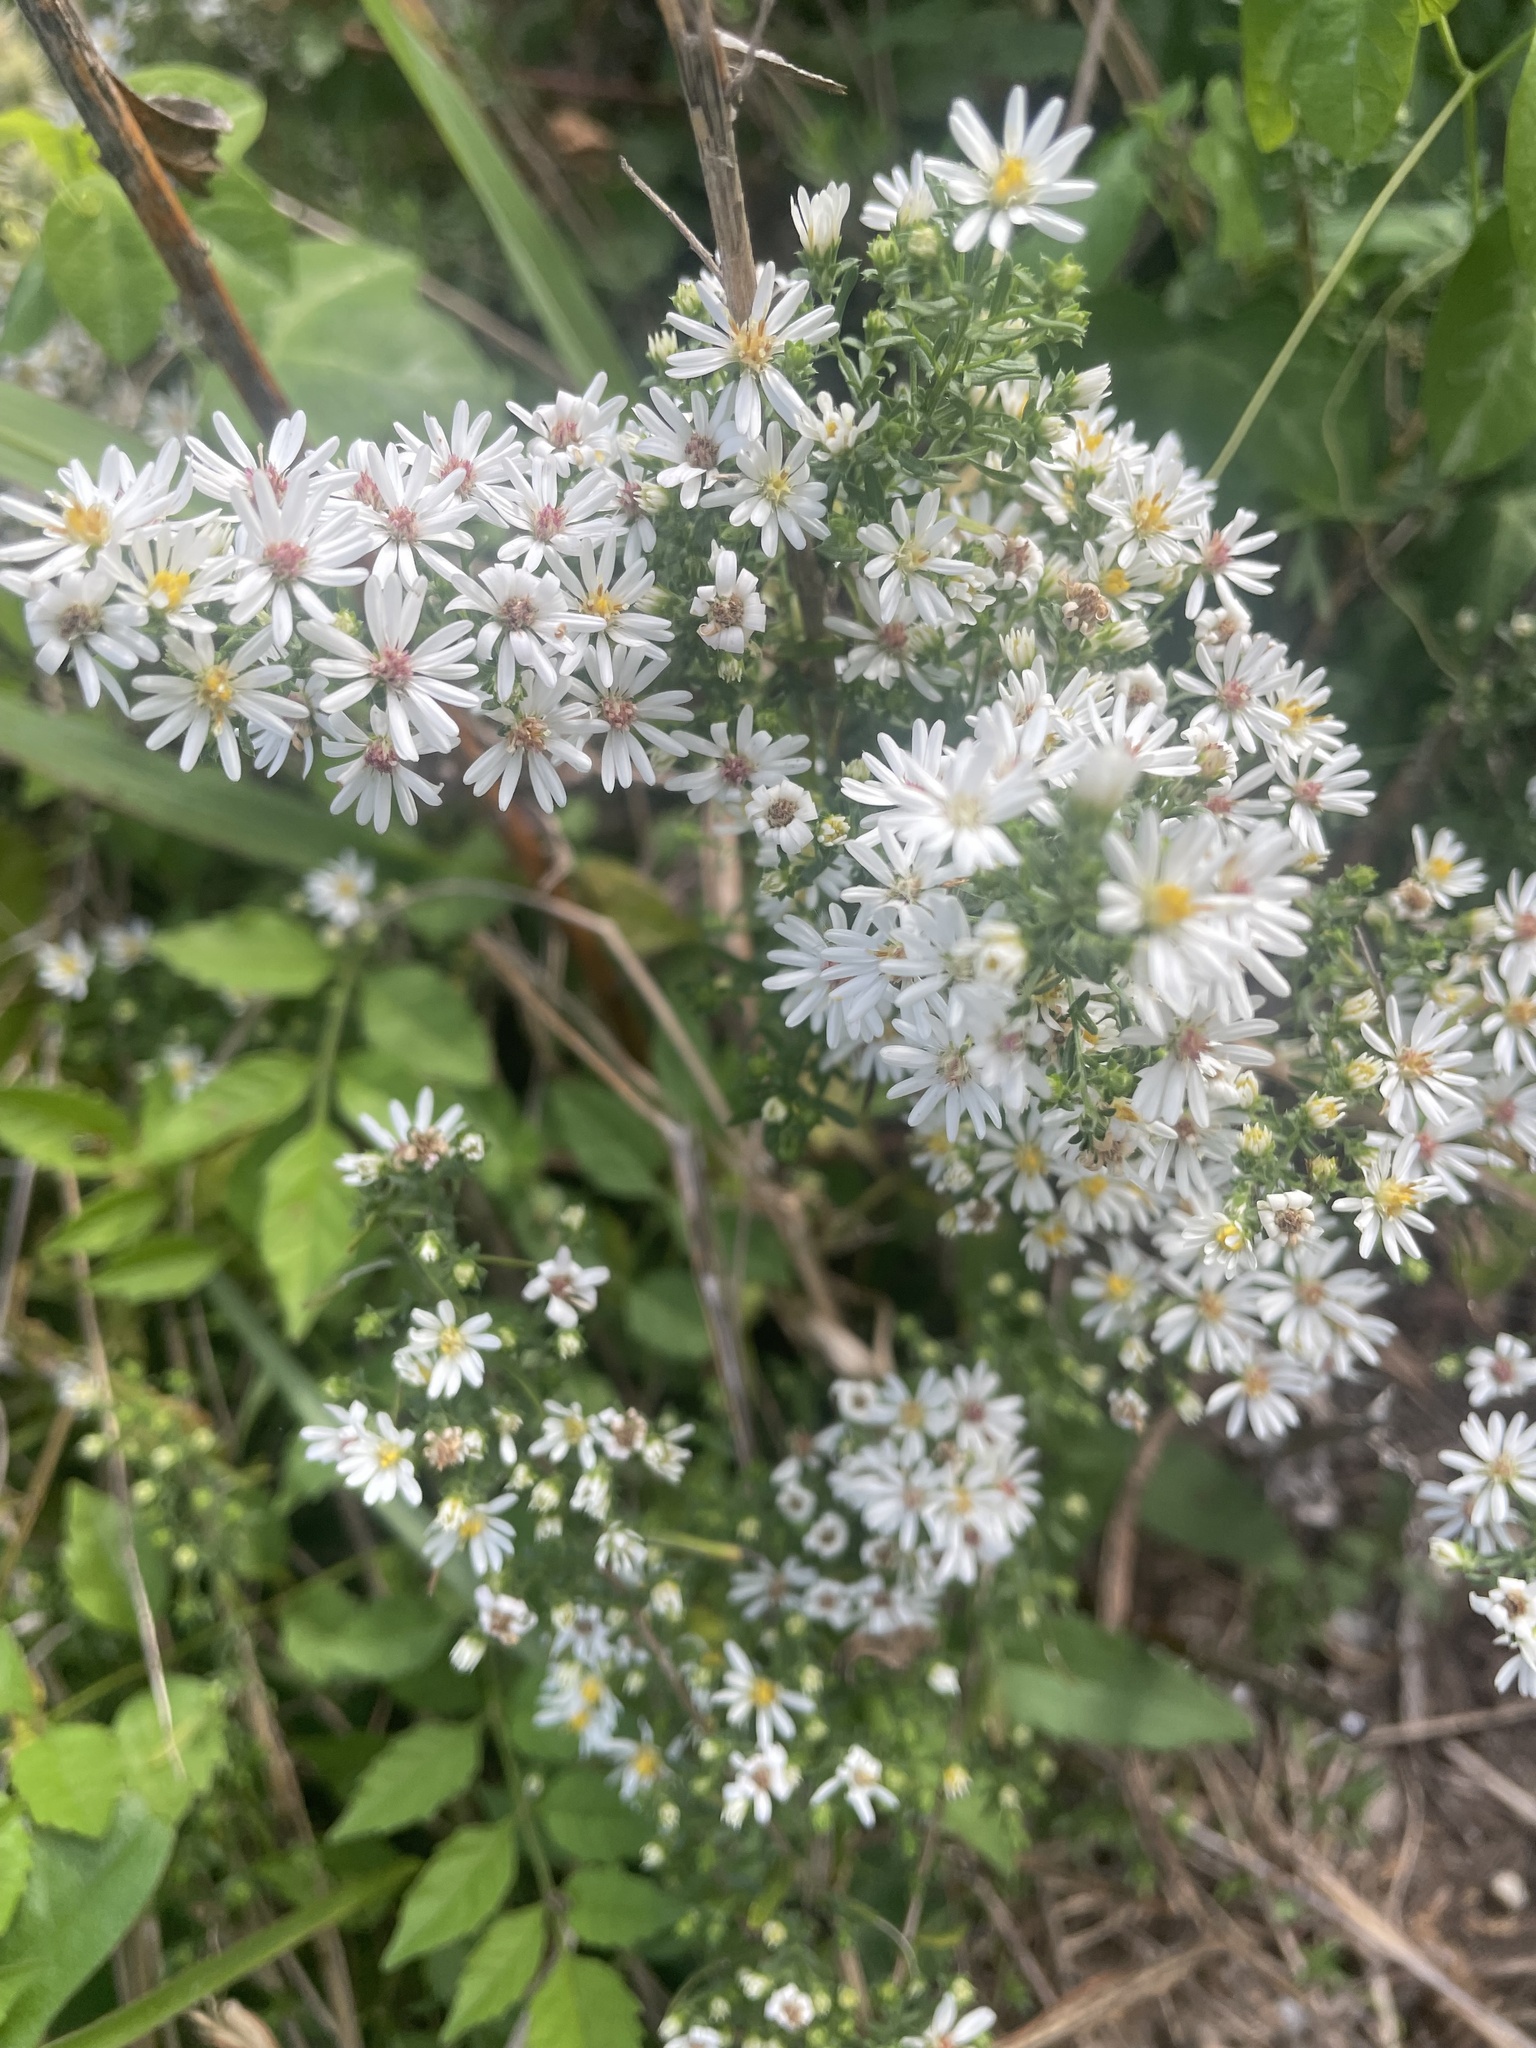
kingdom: Plantae
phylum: Tracheophyta
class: Magnoliopsida
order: Asterales
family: Asteraceae
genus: Symphyotrichum
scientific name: Symphyotrichum ericoides
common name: Heath aster
